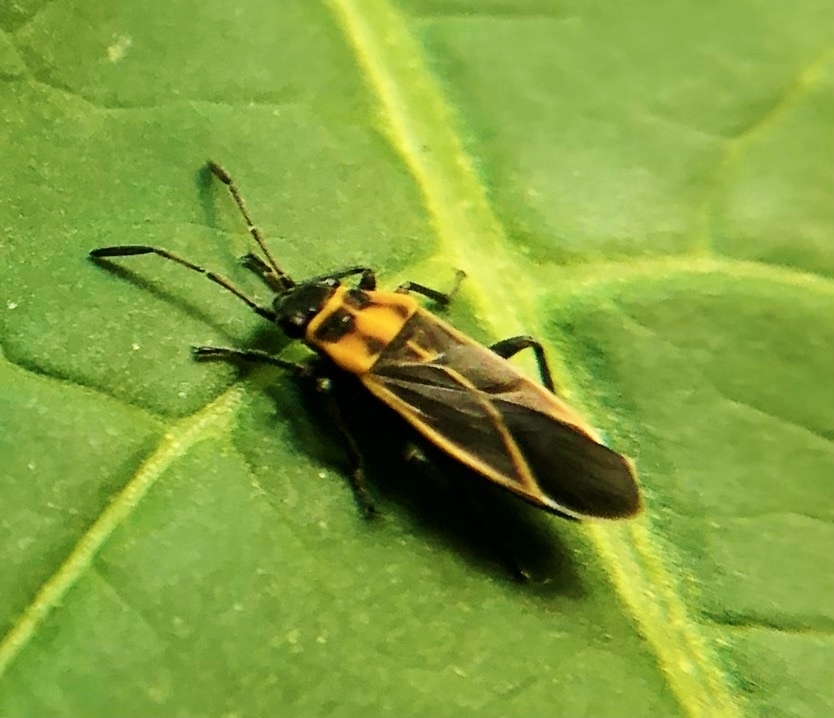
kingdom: Animalia
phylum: Arthropoda
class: Insecta
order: Hemiptera
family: Lygaeidae
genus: Ochrimnus
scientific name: Ochrimnus lineoloides
